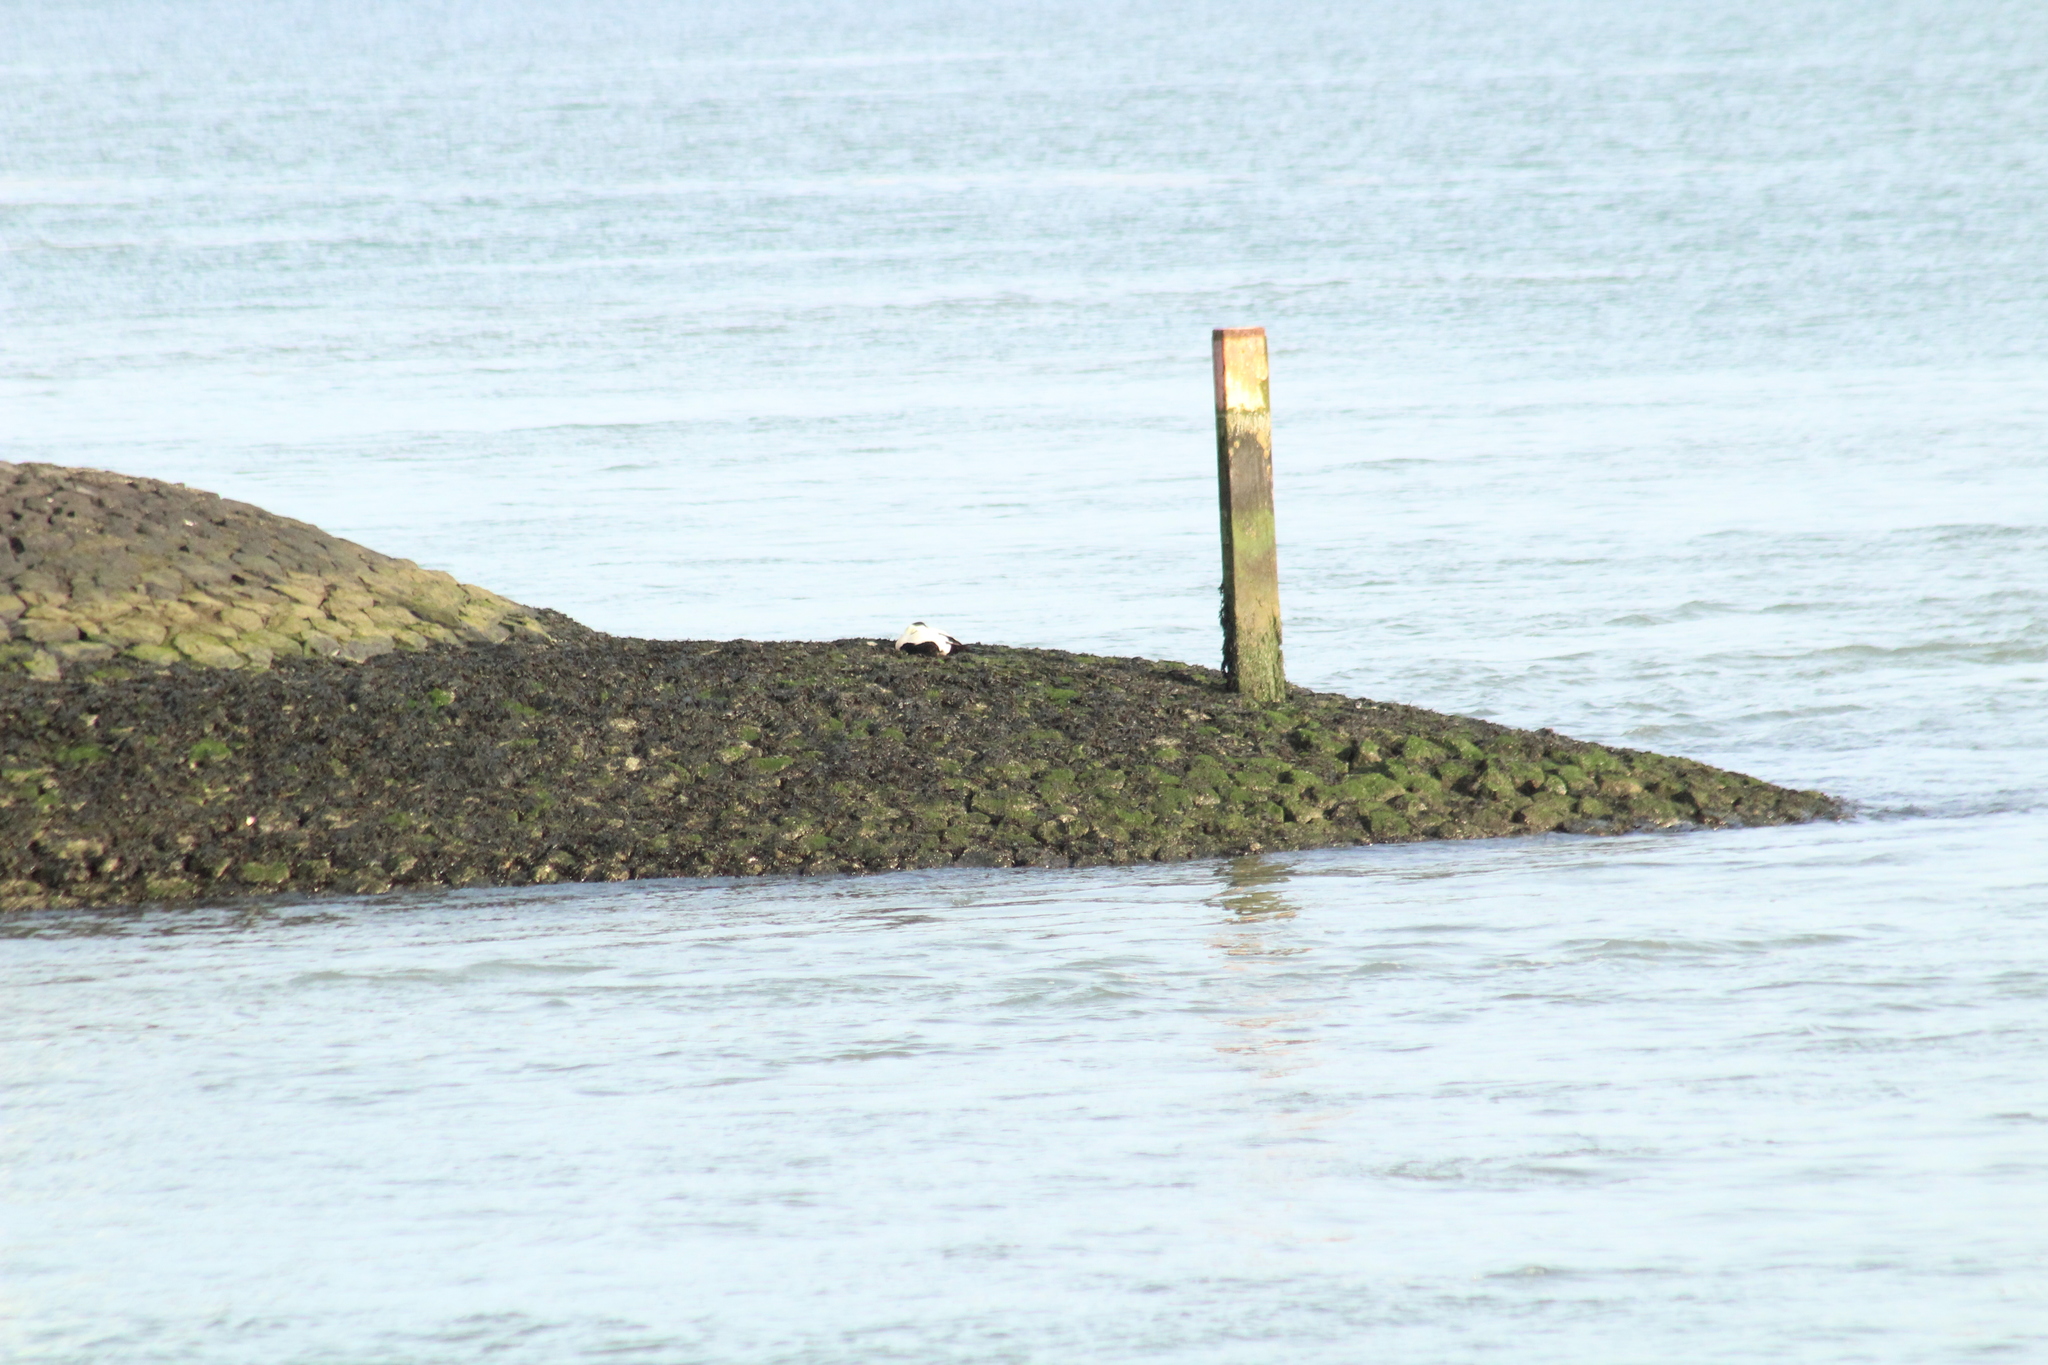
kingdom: Animalia
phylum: Chordata
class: Aves
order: Anseriformes
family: Anatidae
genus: Somateria
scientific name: Somateria mollissima
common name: Common eider
